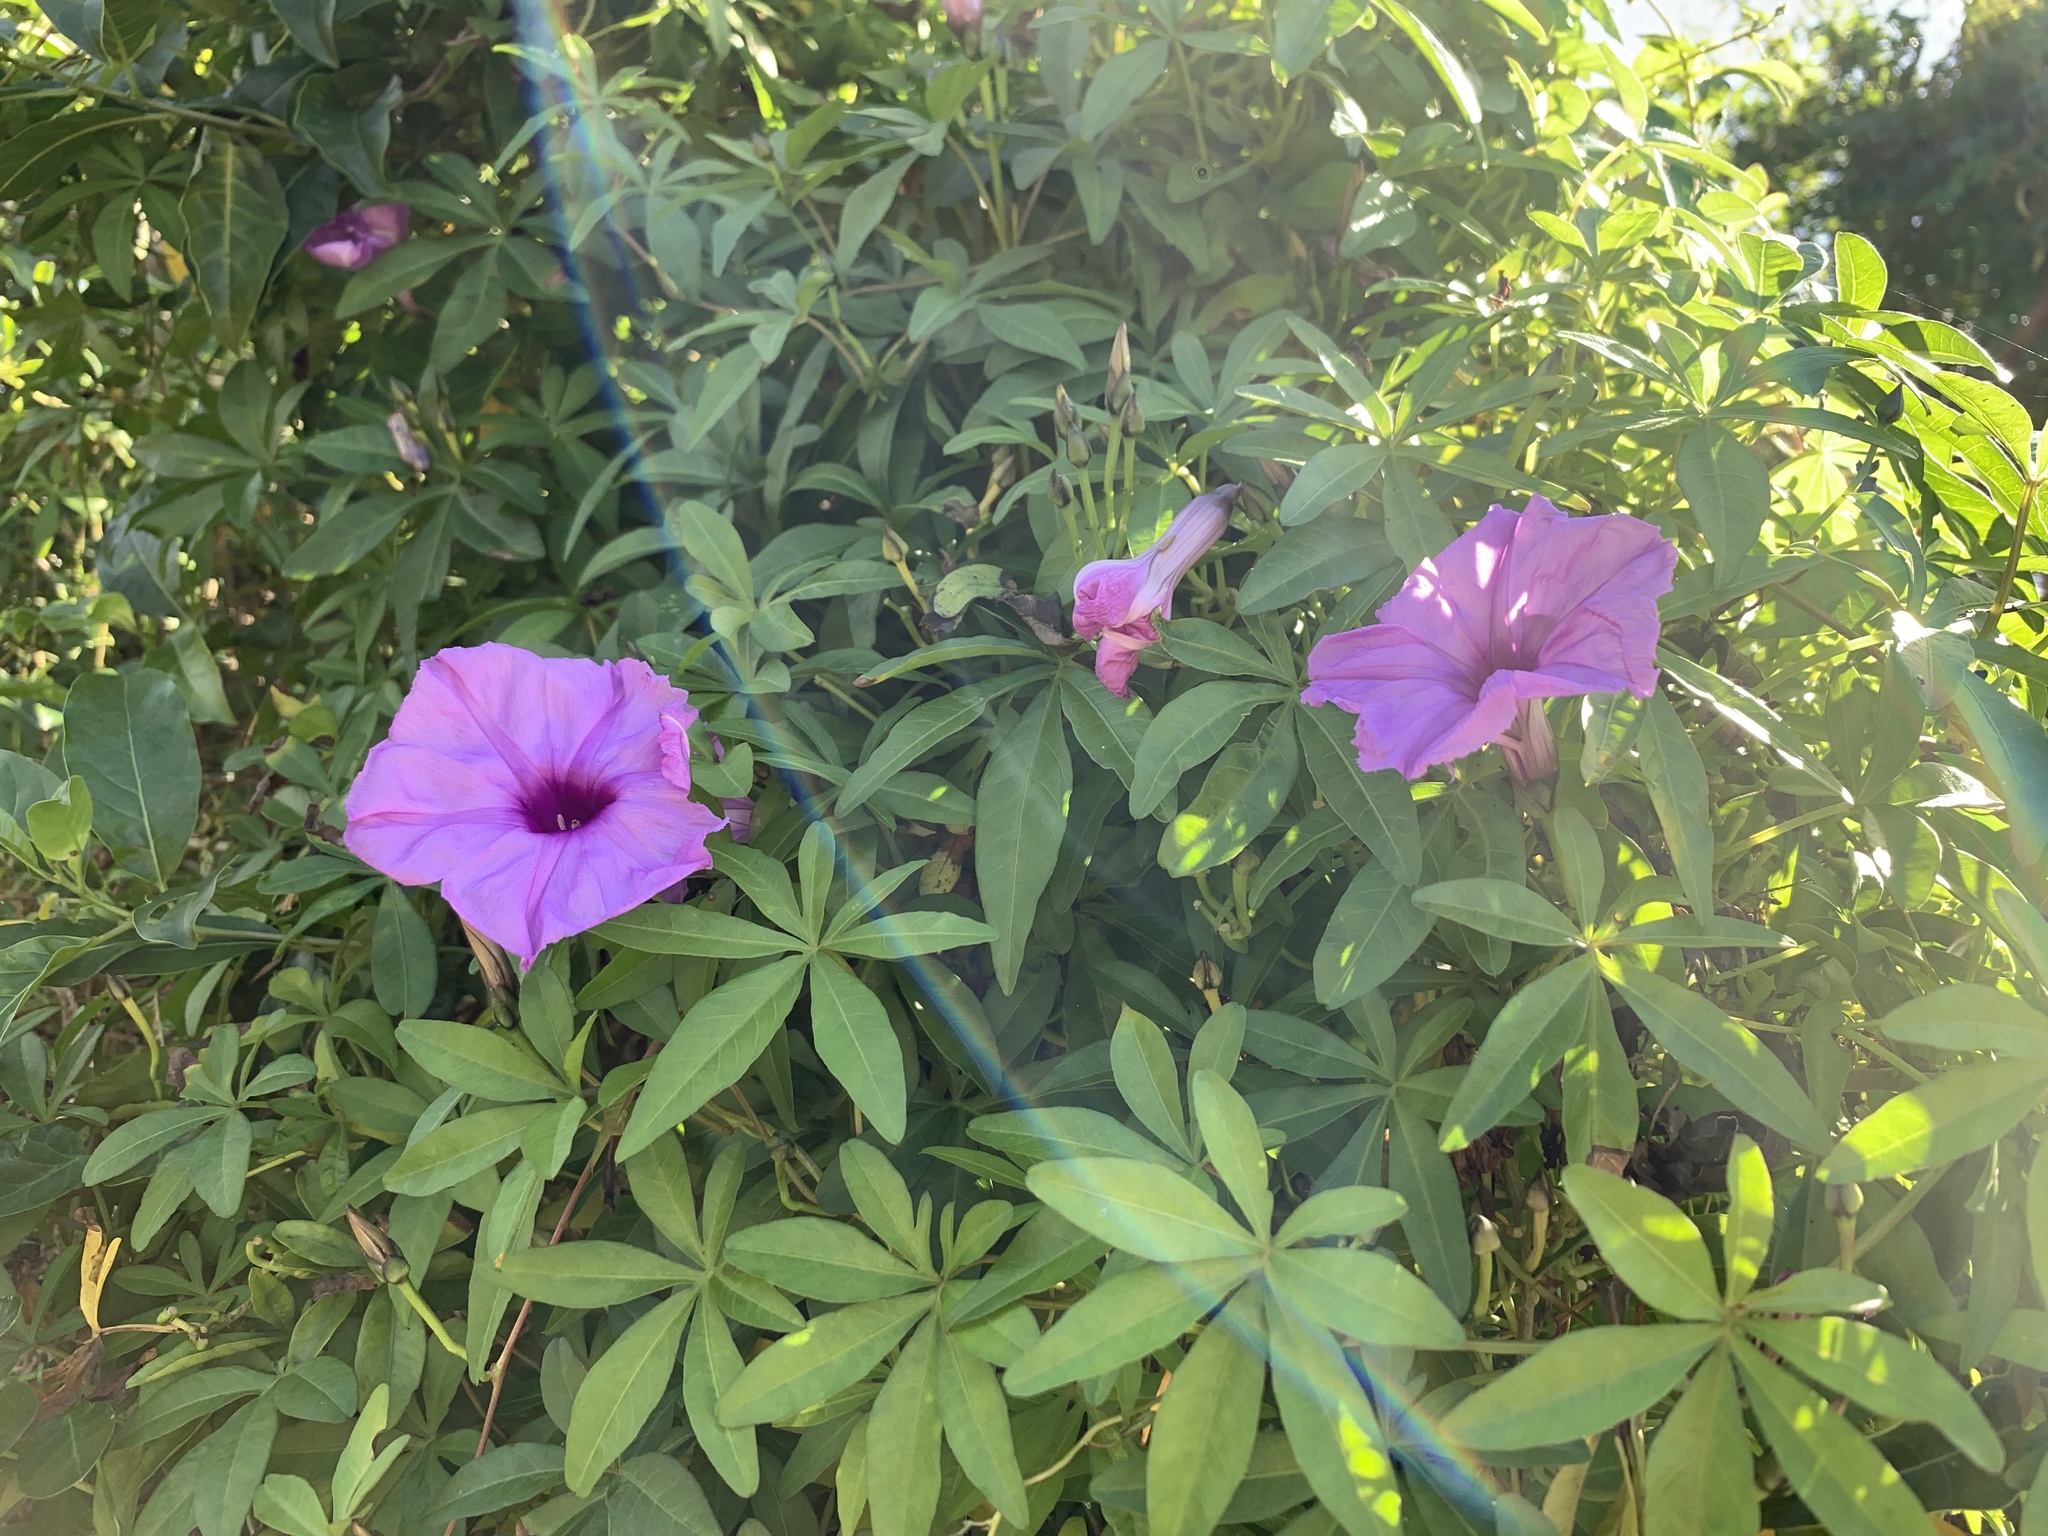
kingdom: Plantae
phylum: Tracheophyta
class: Magnoliopsida
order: Solanales
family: Convolvulaceae
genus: Ipomoea
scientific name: Ipomoea cairica
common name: Mile a minute vine
